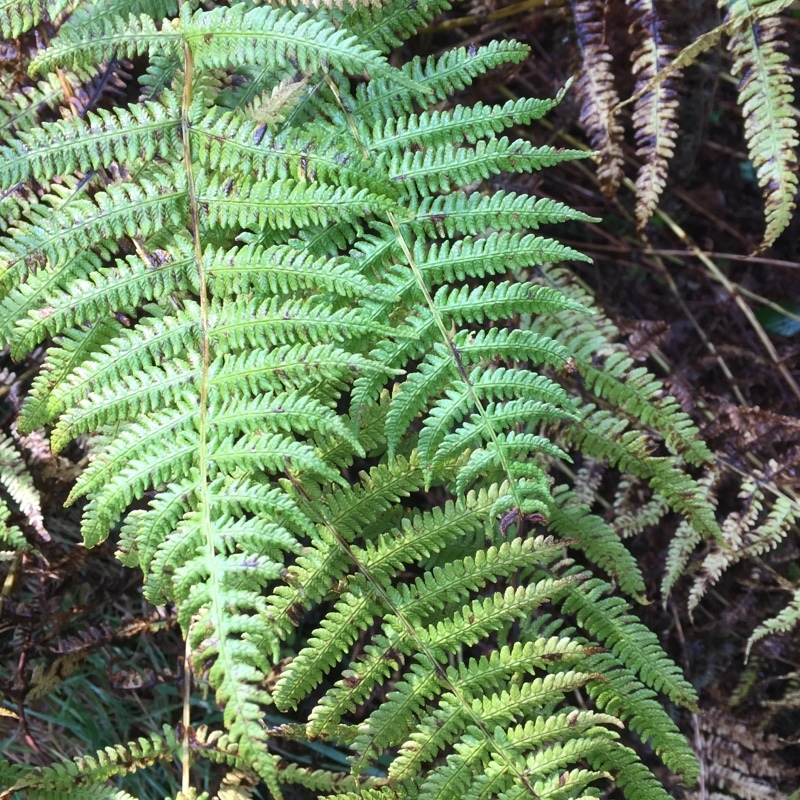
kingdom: Plantae
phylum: Tracheophyta
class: Polypodiopsida
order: Polypodiales
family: Thelypteridaceae
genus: Oreopteris
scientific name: Oreopteris limbosperma
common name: Lemon-scented fern
